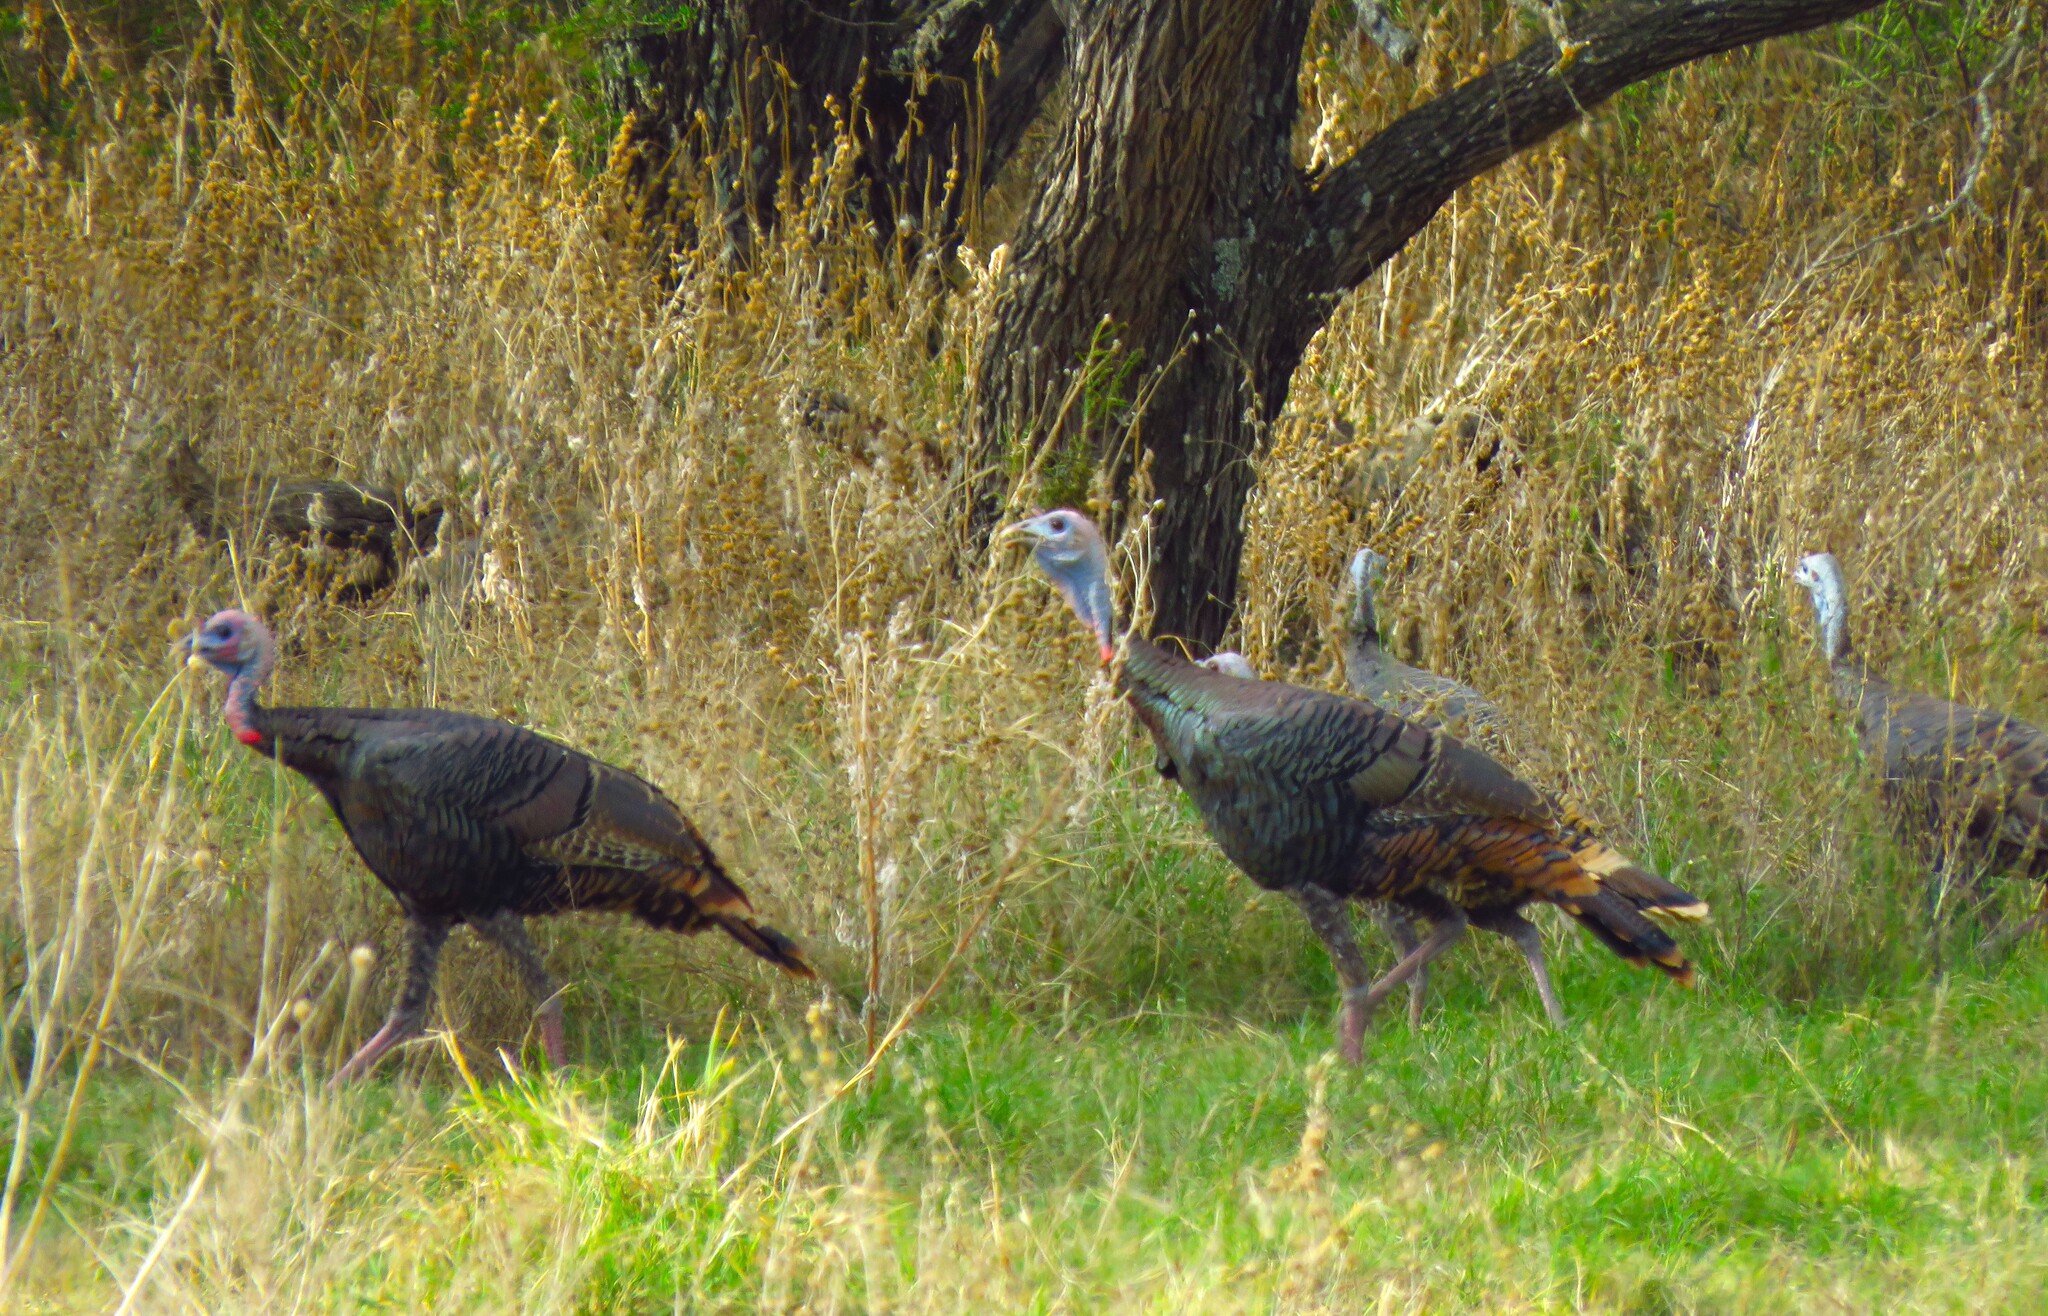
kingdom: Animalia
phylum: Chordata
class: Aves
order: Galliformes
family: Phasianidae
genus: Meleagris
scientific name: Meleagris gallopavo
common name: Wild turkey
